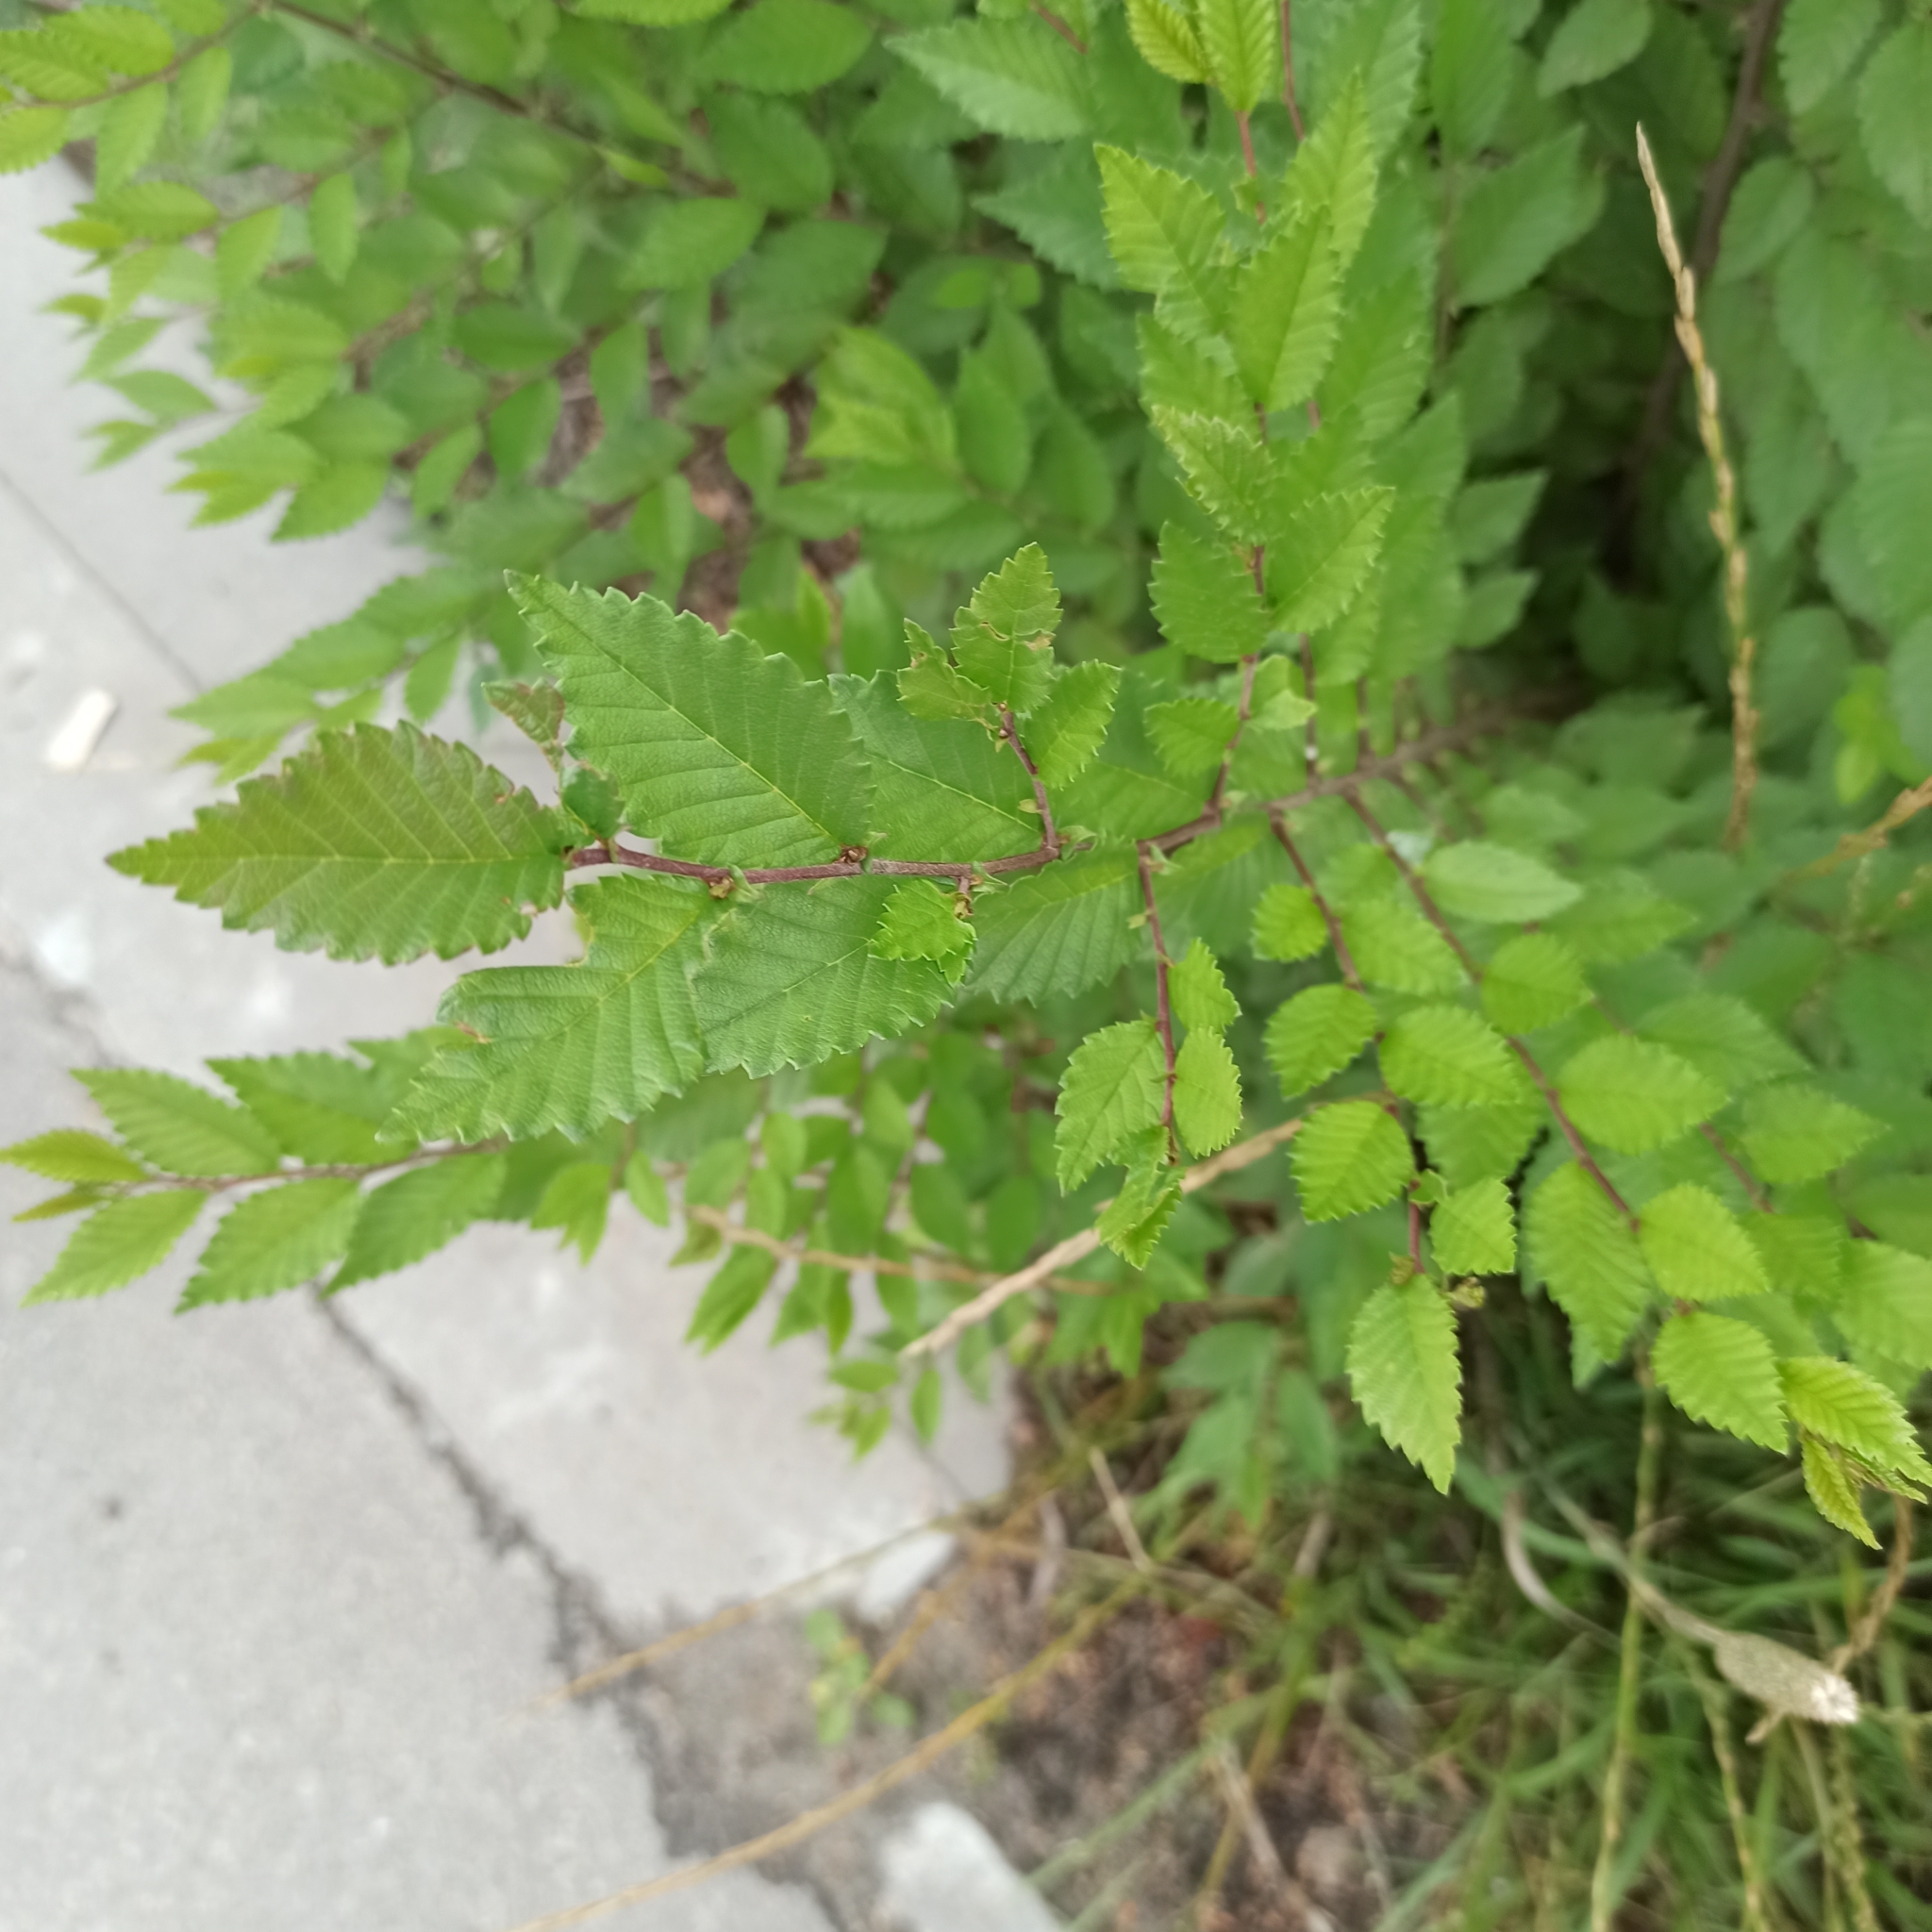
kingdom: Plantae
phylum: Tracheophyta
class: Magnoliopsida
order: Rosales
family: Ulmaceae
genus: Ulmus
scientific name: Ulmus pumila
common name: Siberian elm
